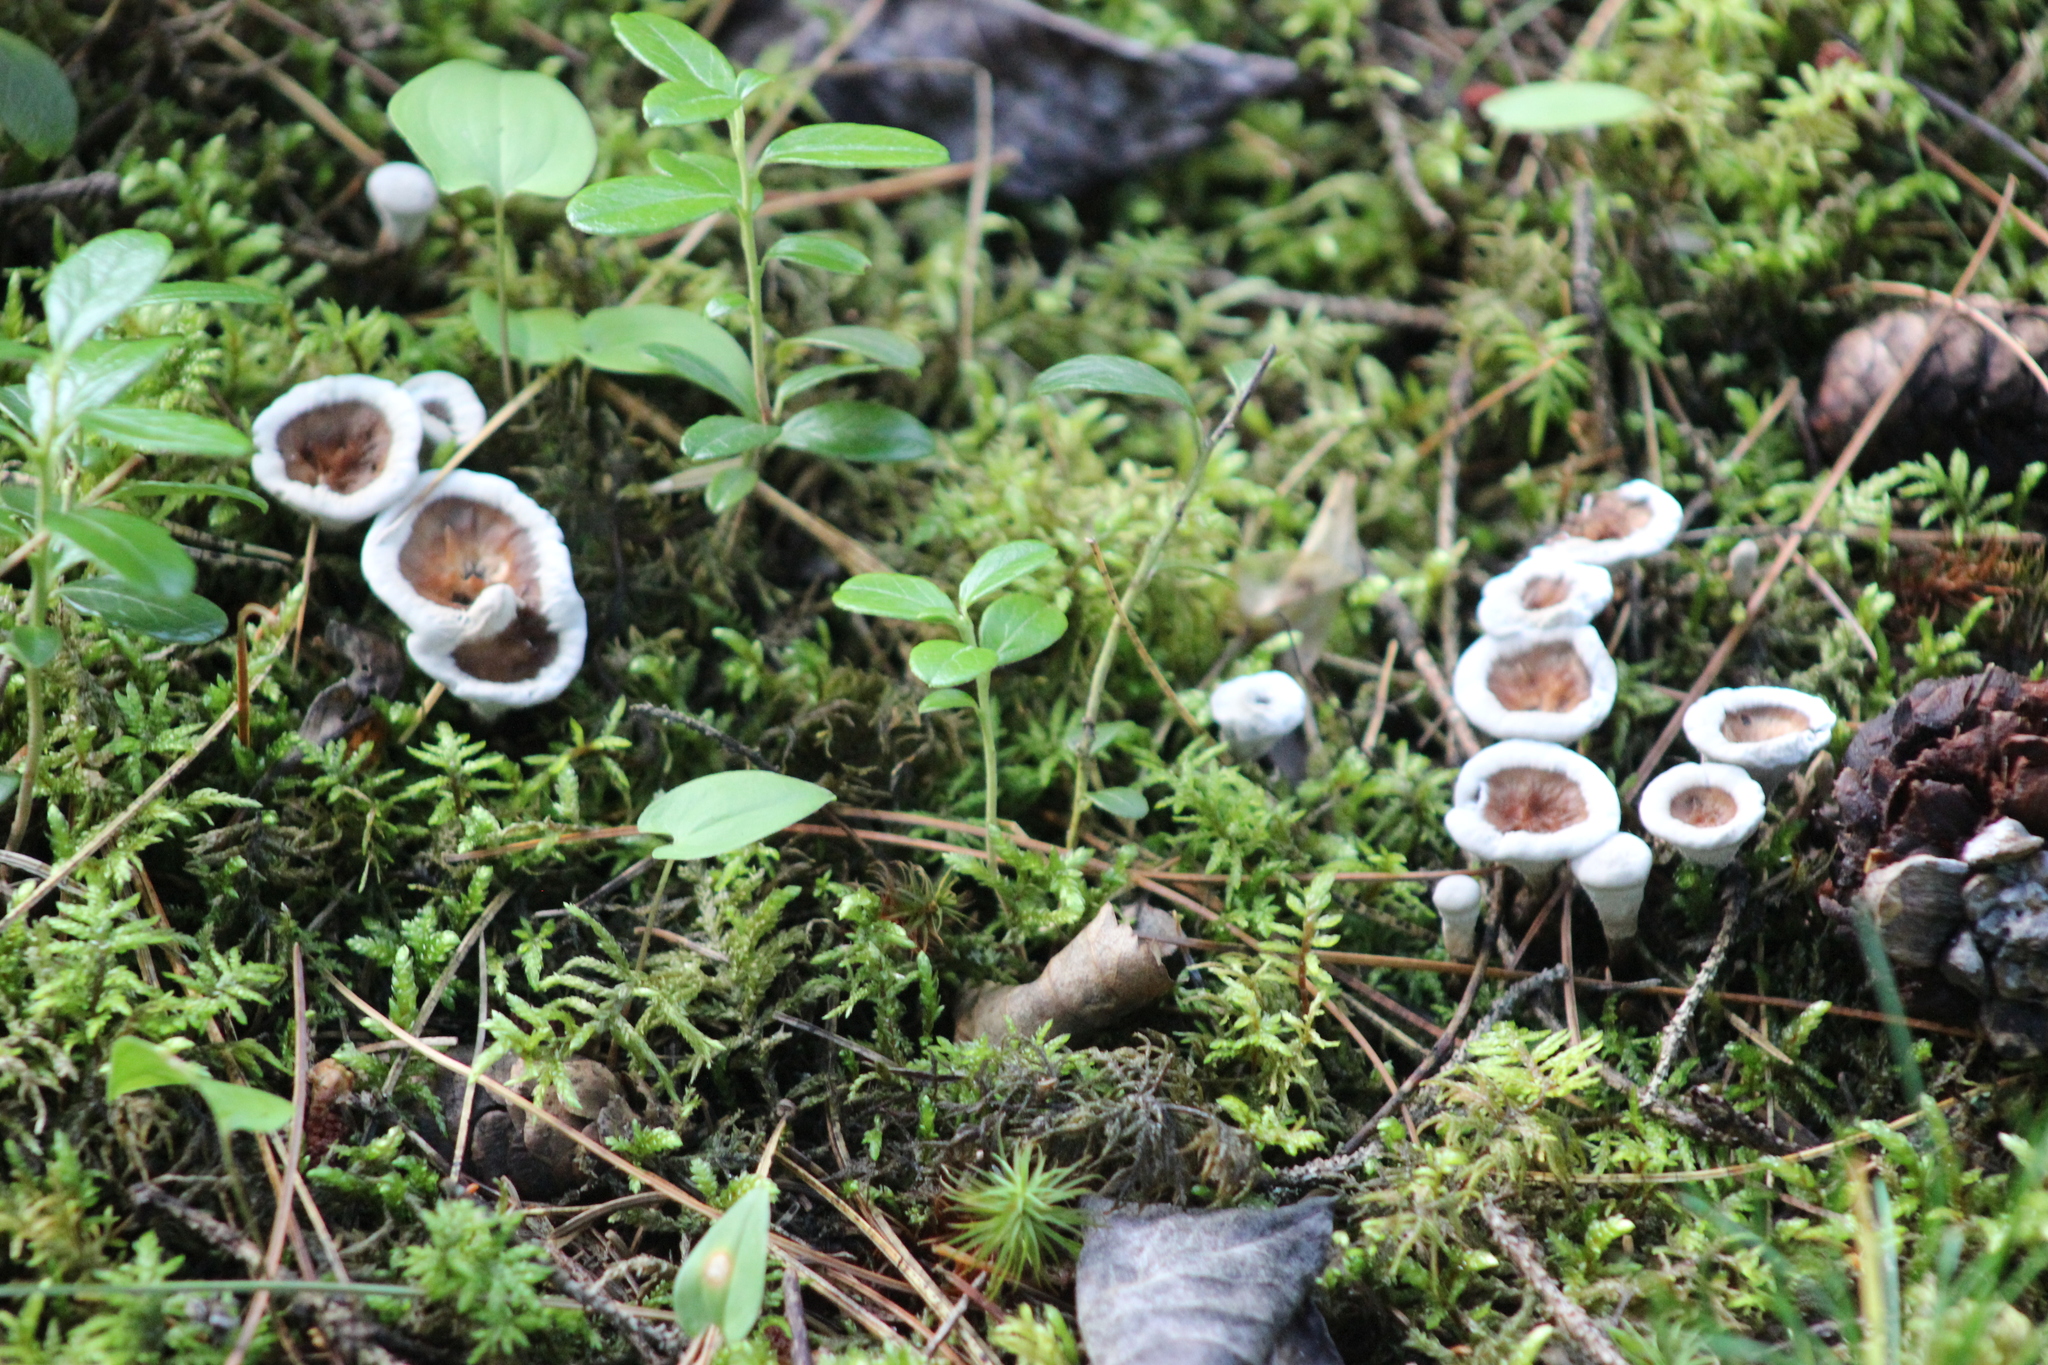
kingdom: Fungi
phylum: Basidiomycota
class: Agaricomycetes
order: Thelephorales
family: Thelephoraceae
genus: Phellodon
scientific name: Phellodon tomentosus
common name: Woolly tooth
